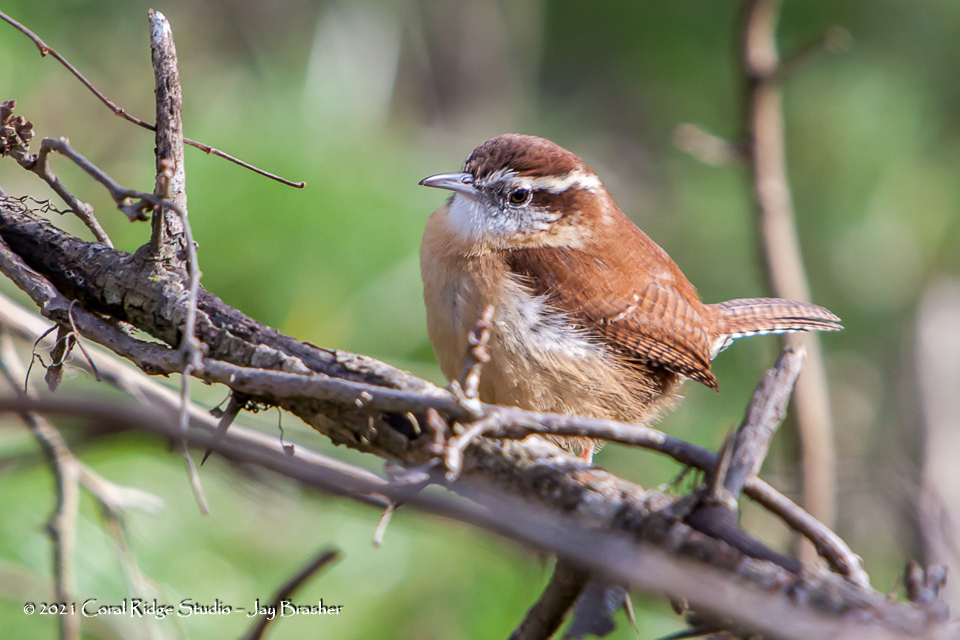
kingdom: Animalia
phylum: Chordata
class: Aves
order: Passeriformes
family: Troglodytidae
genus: Thryothorus
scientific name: Thryothorus ludovicianus
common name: Carolina wren
